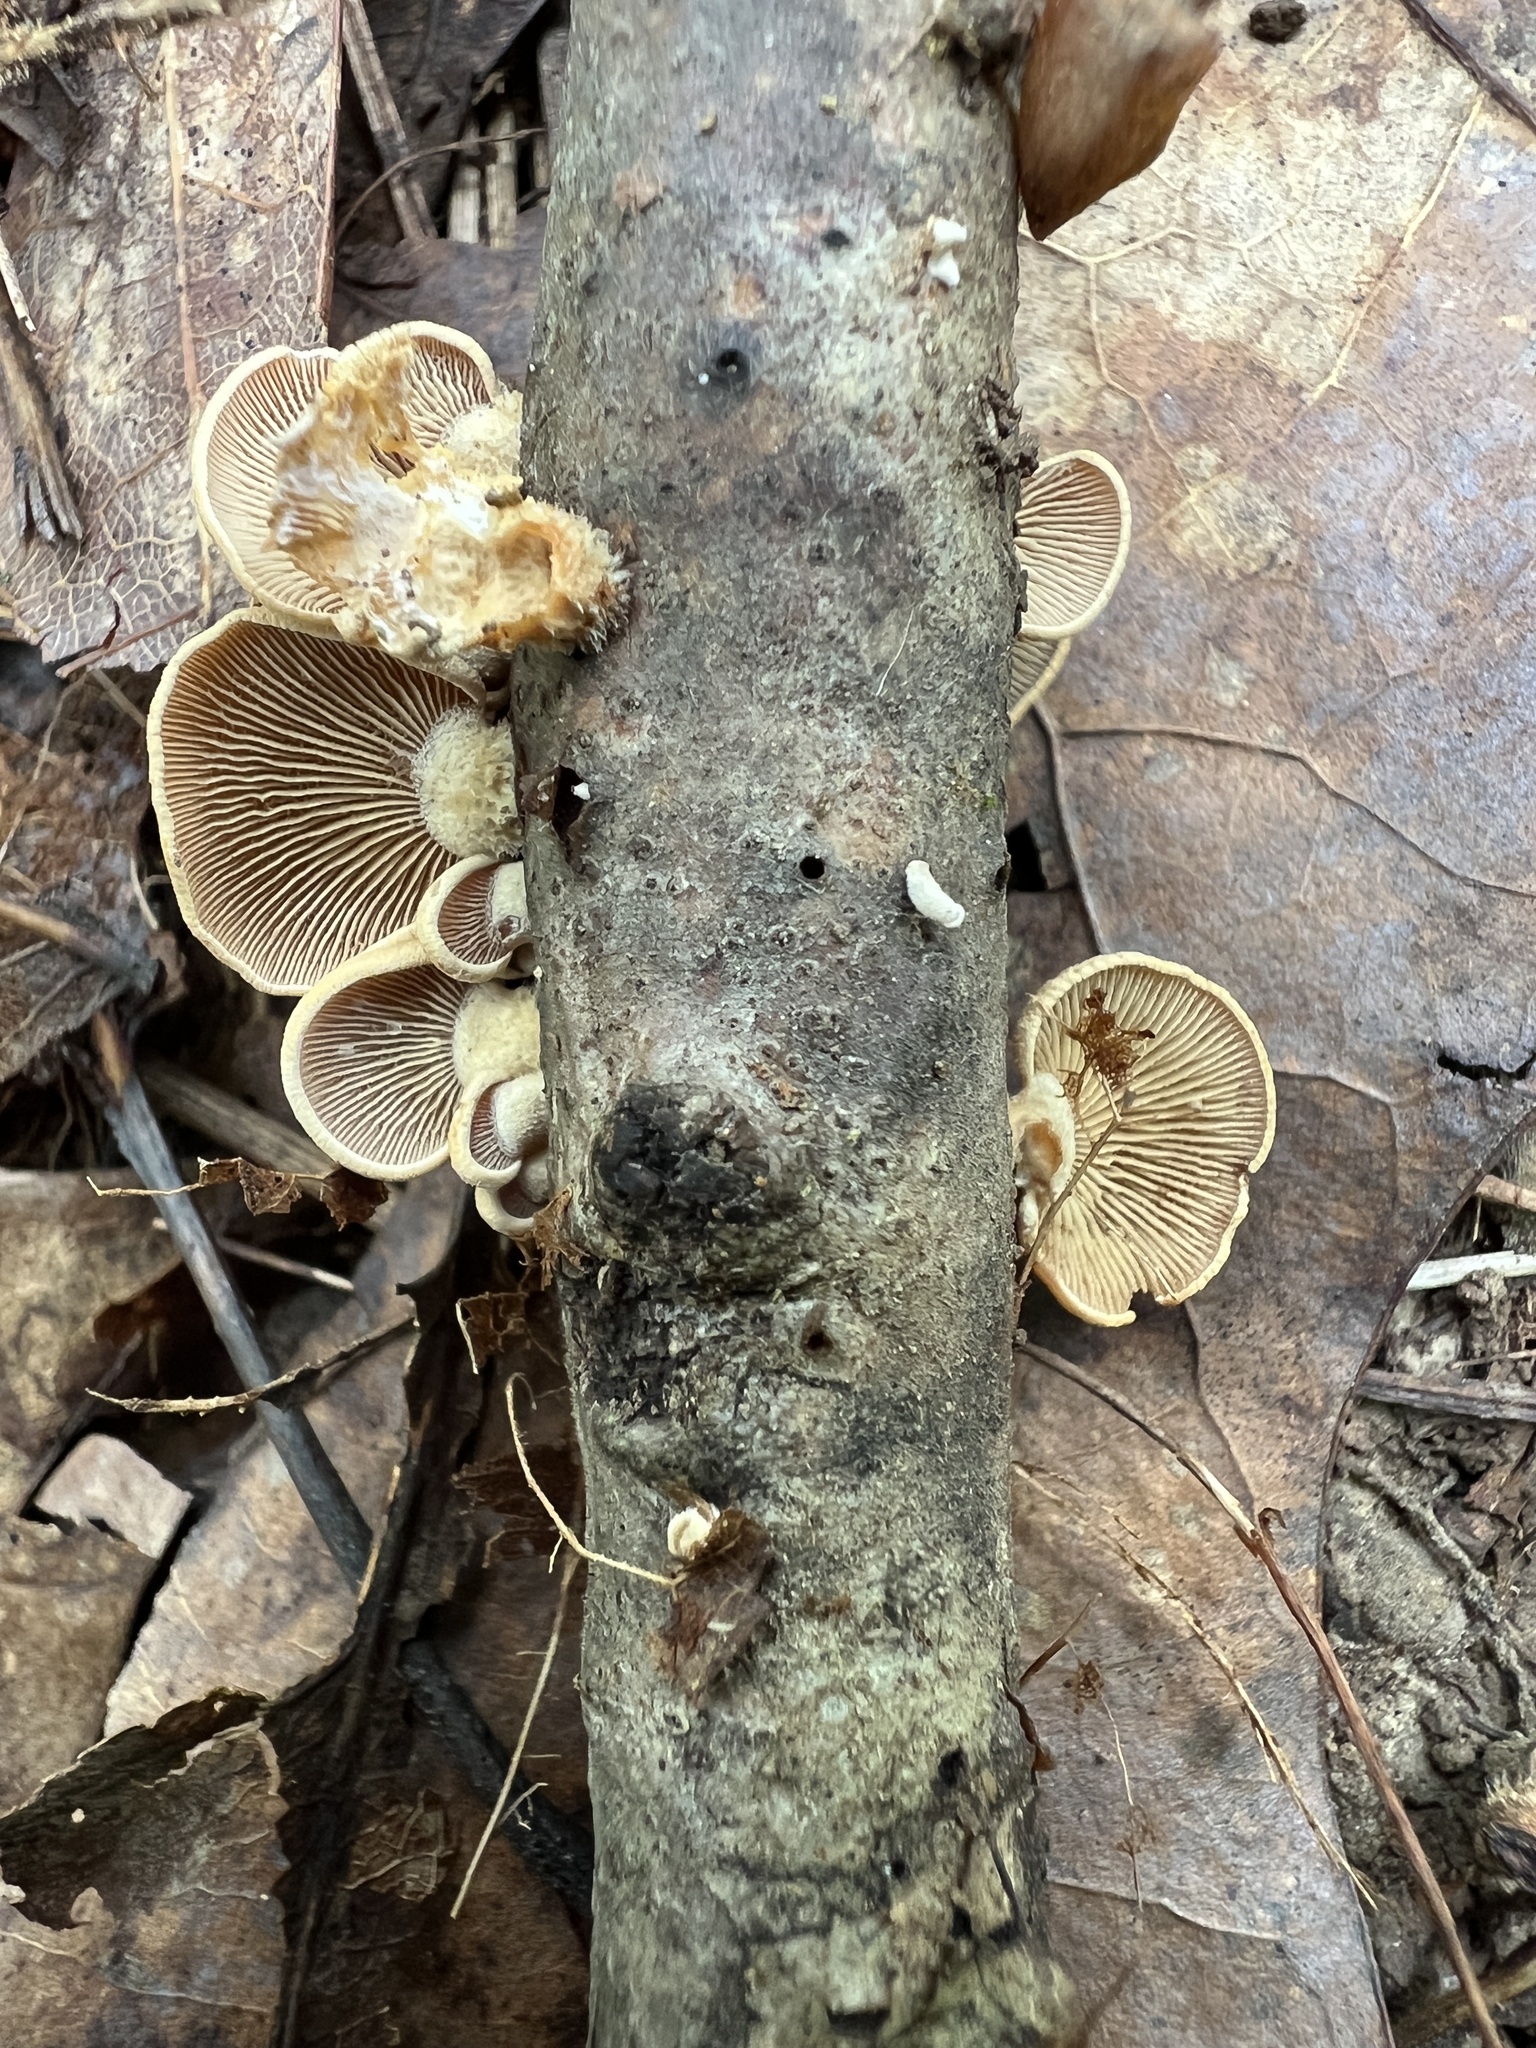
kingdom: Fungi
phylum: Basidiomycota
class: Agaricomycetes
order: Agaricales
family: Mycenaceae
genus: Panellus
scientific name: Panellus stipticus
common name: Bitter oysterling
